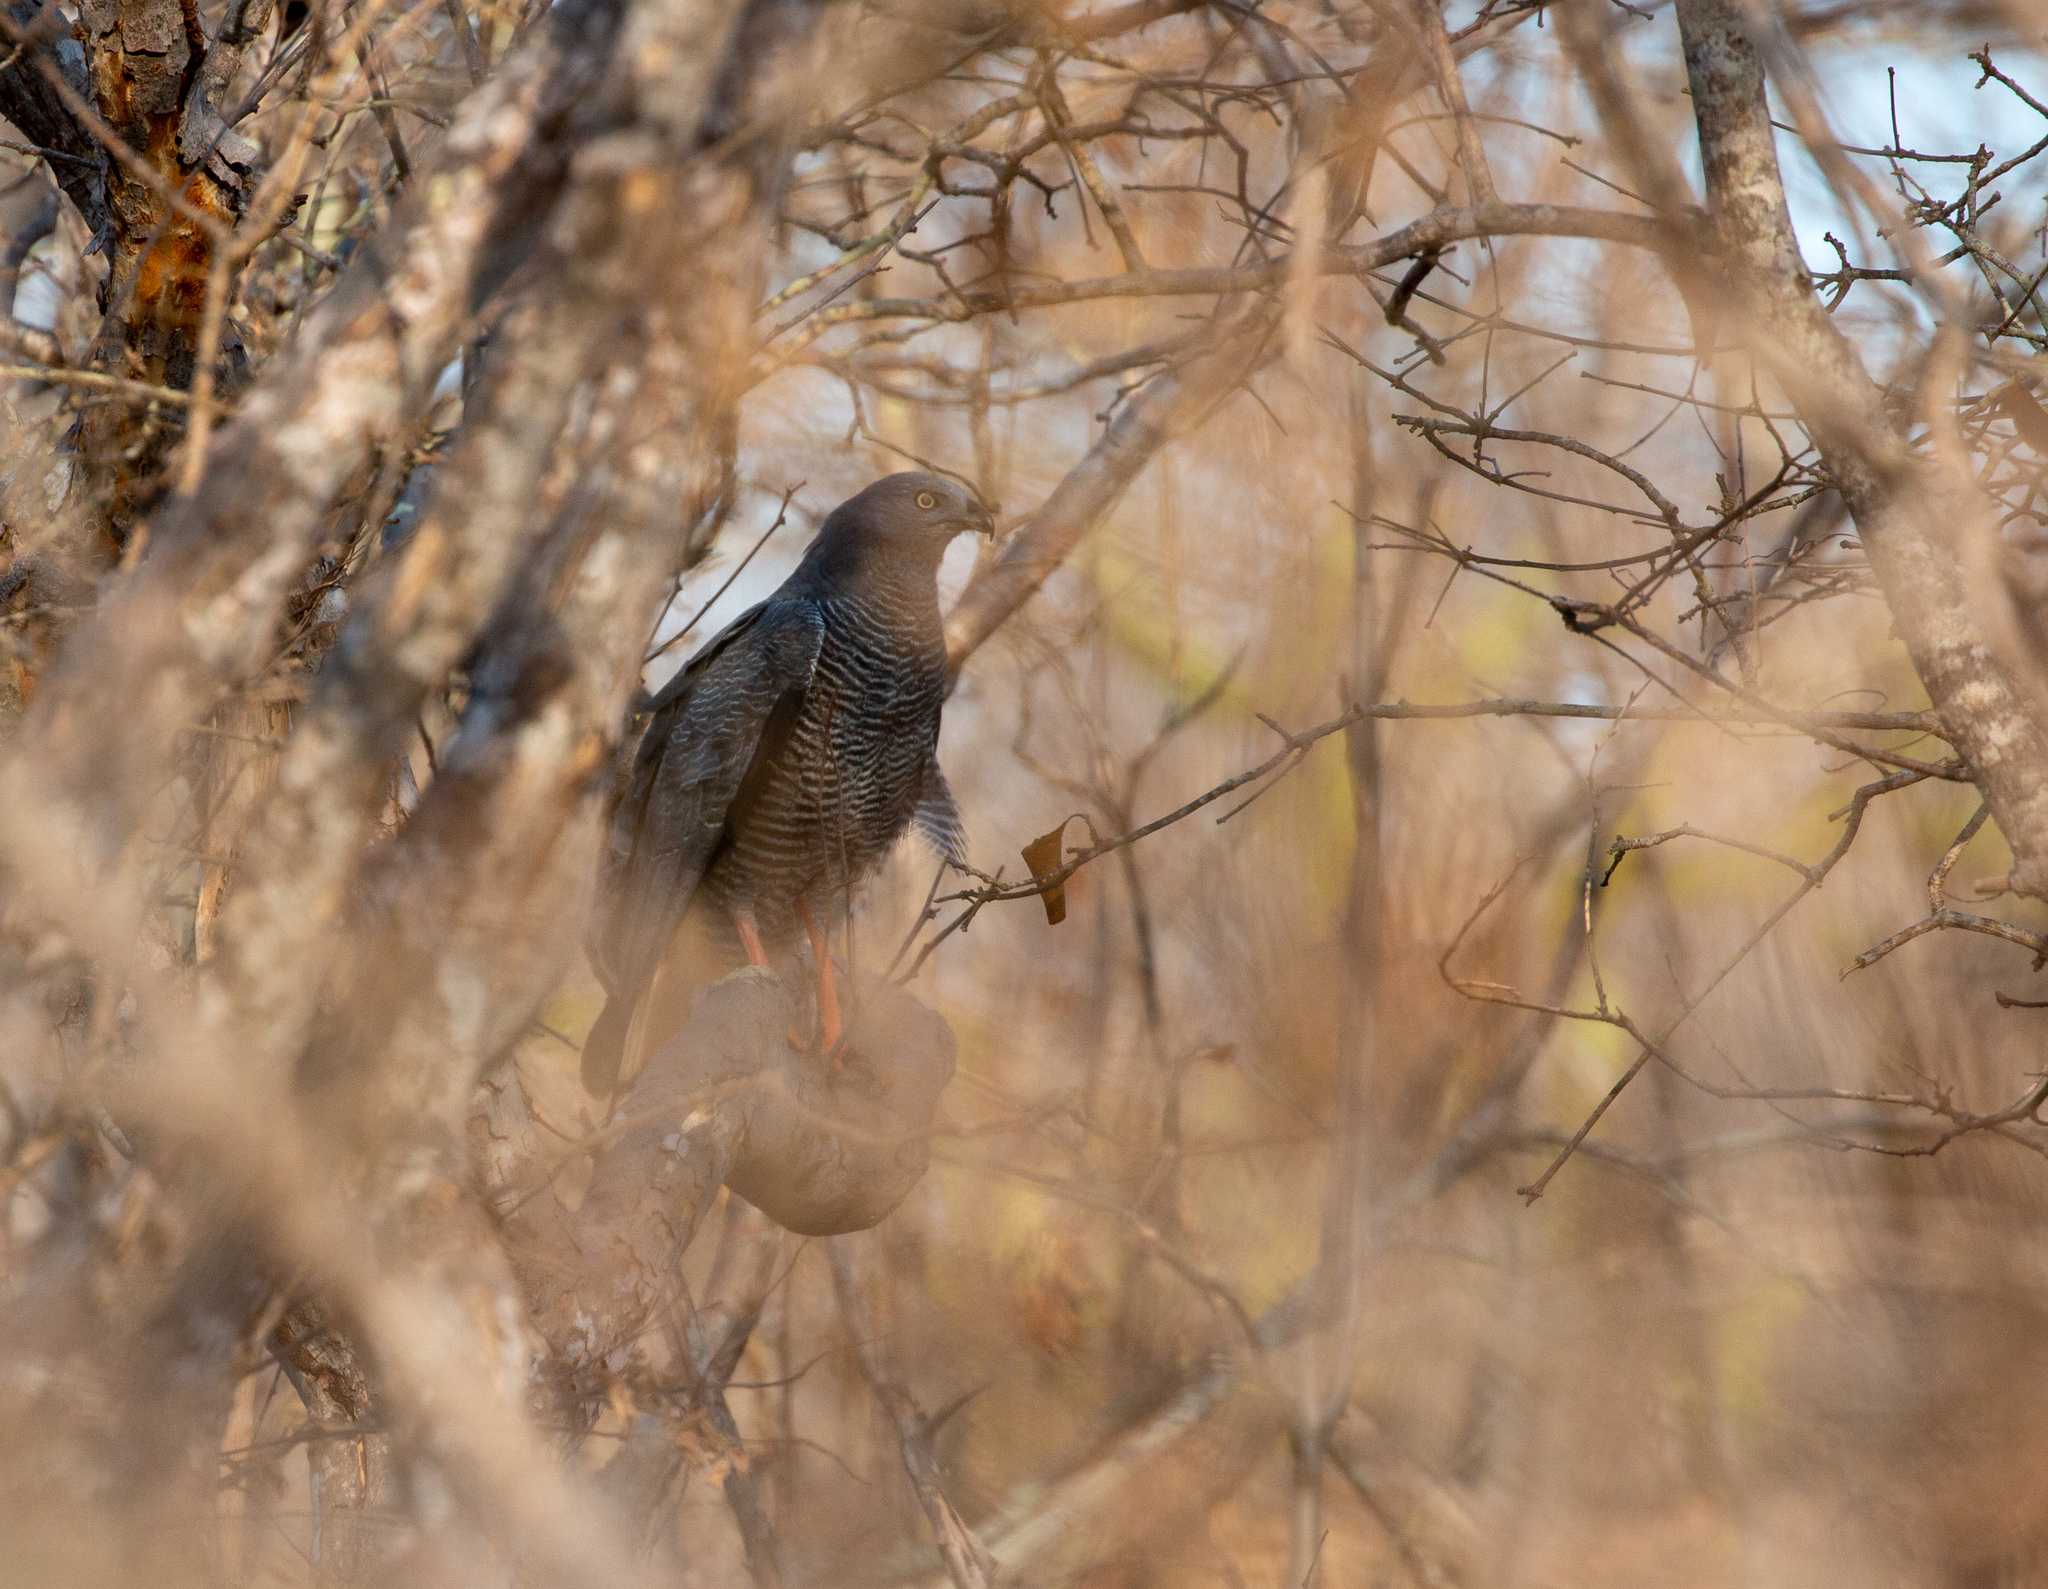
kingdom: Animalia
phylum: Chordata
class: Aves
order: Accipitriformes
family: Accipitridae
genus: Geranospiza
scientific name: Geranospiza caerulescens
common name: Crane hawk
